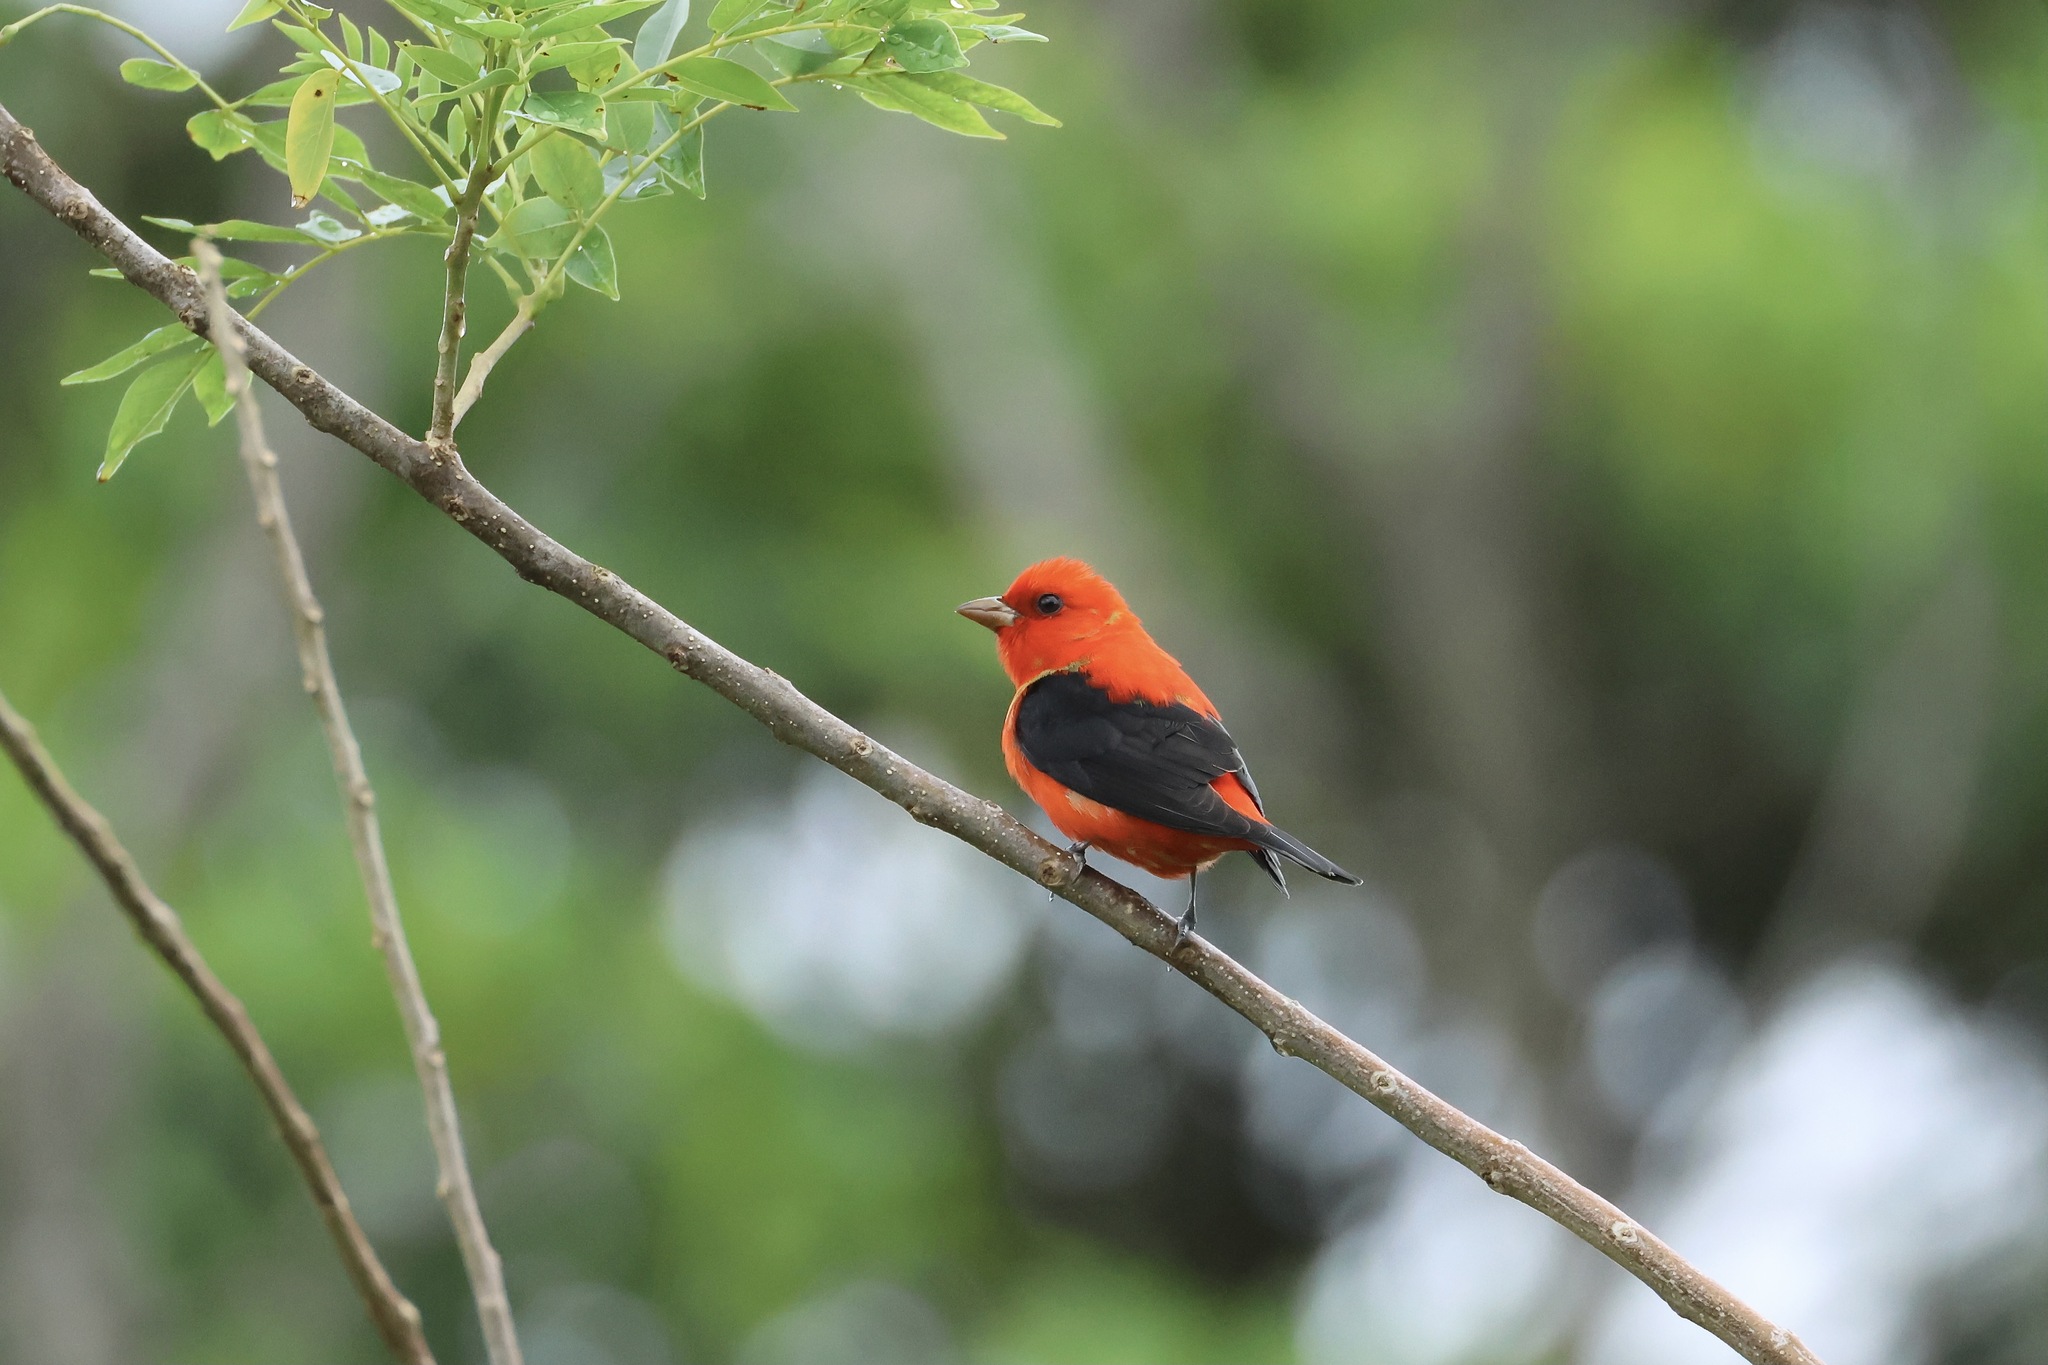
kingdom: Animalia
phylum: Chordata
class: Aves
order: Passeriformes
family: Cardinalidae
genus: Piranga
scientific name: Piranga olivacea
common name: Scarlet tanager
